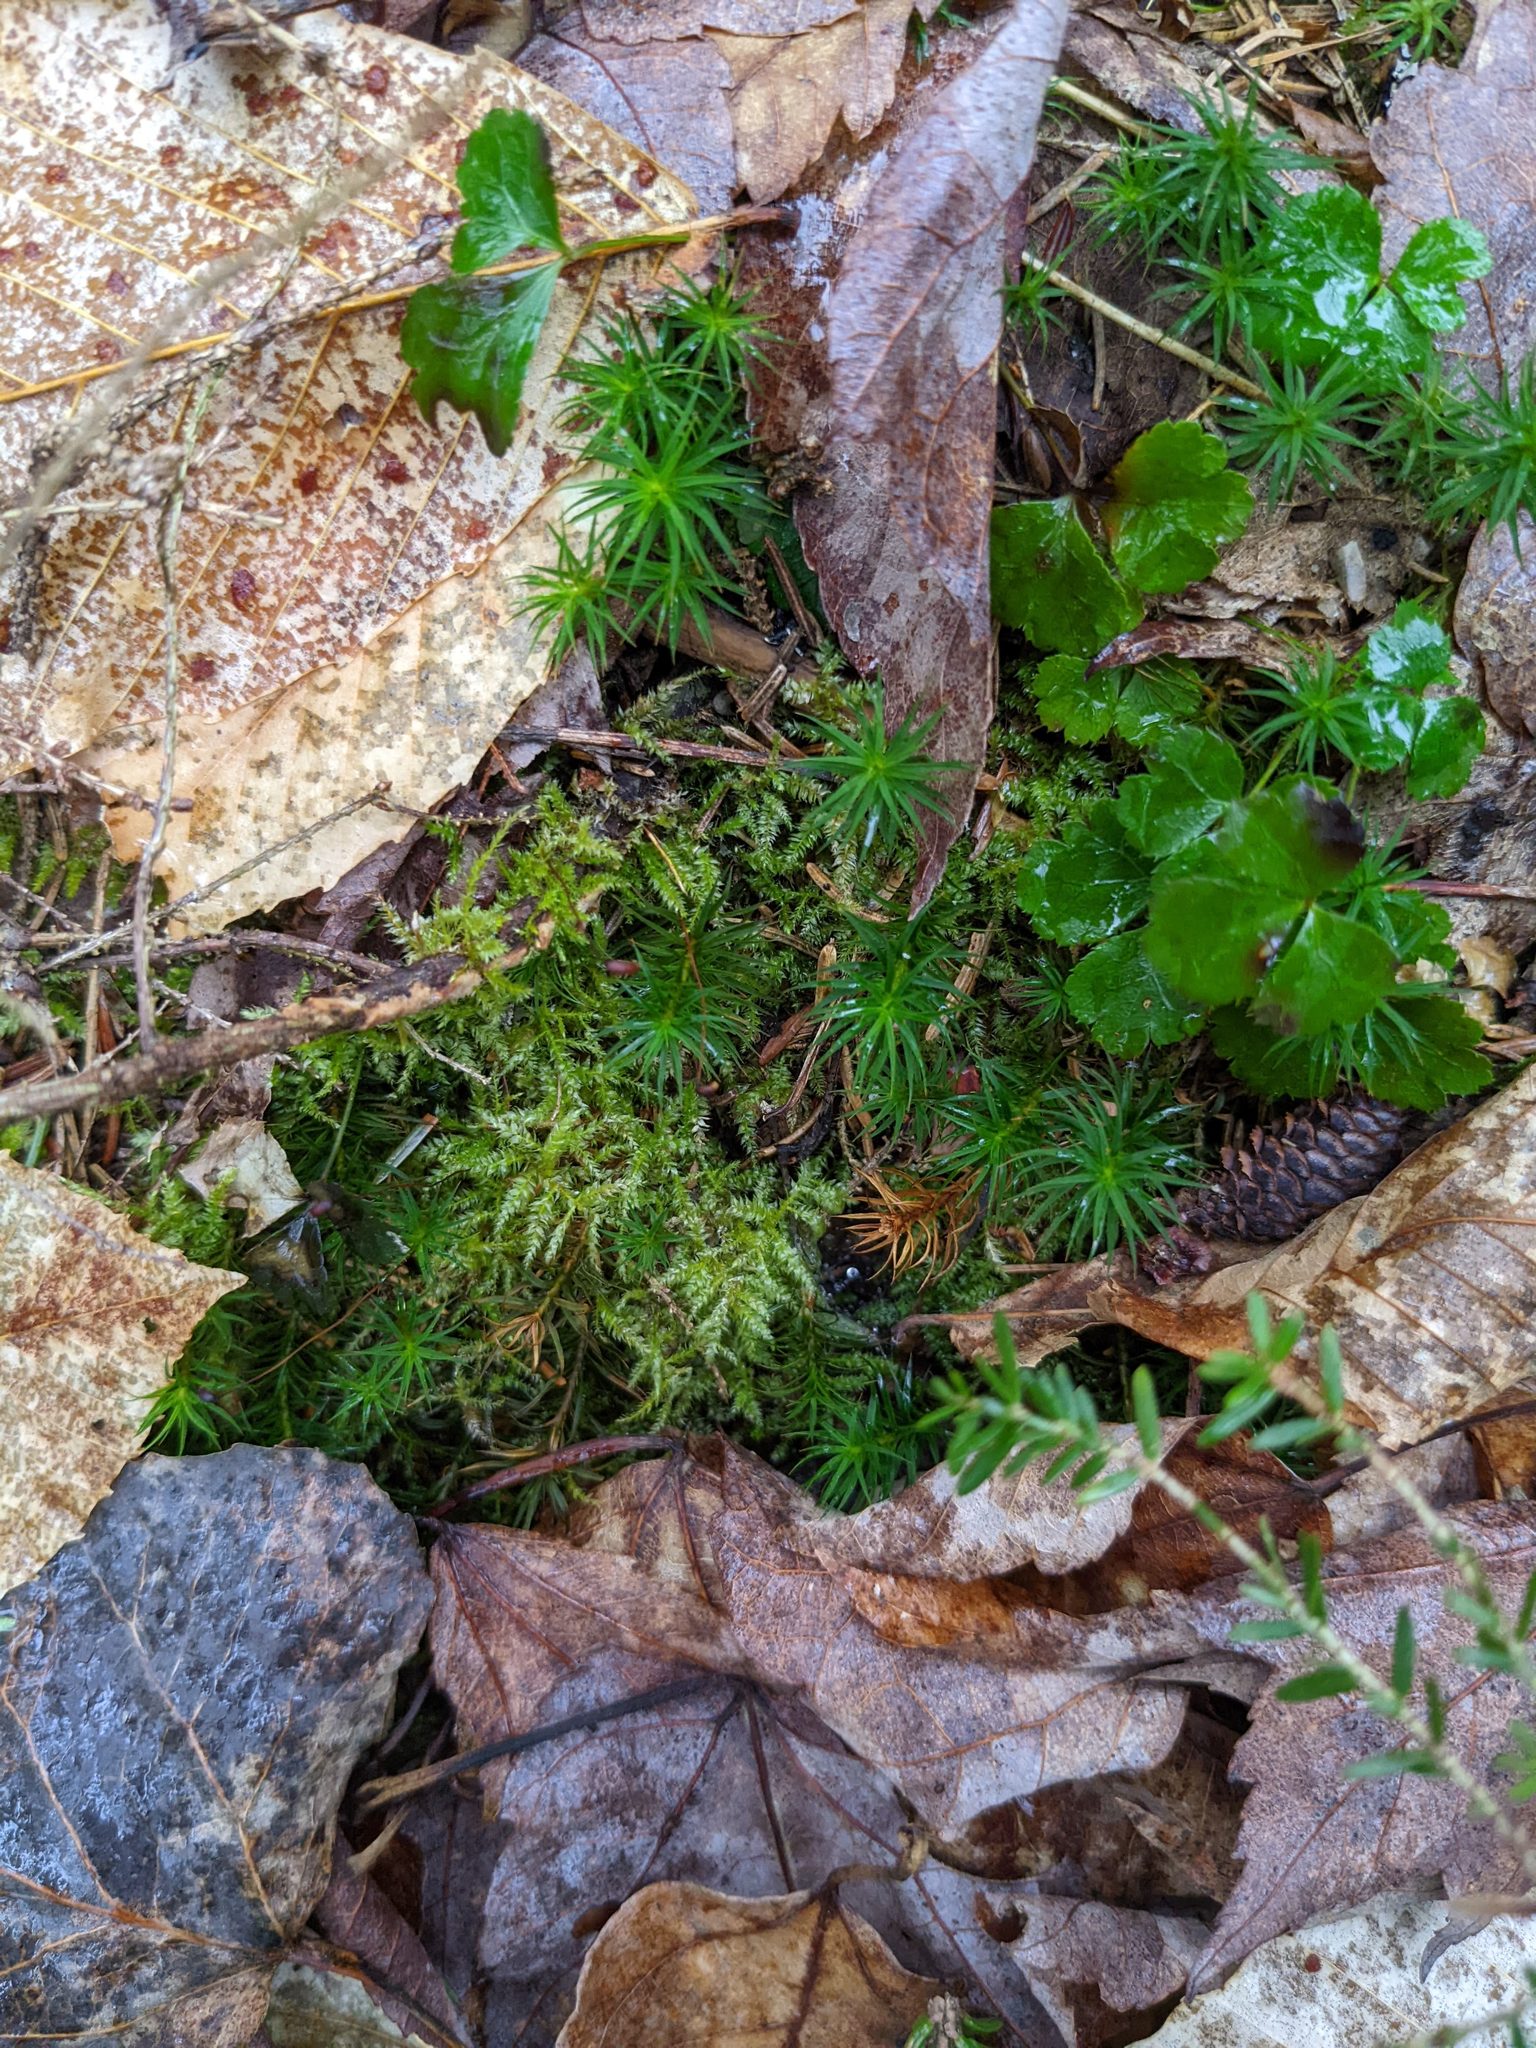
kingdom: Plantae
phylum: Tracheophyta
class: Magnoliopsida
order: Ranunculales
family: Ranunculaceae
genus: Coptis
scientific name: Coptis trifolia
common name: Canker-root
